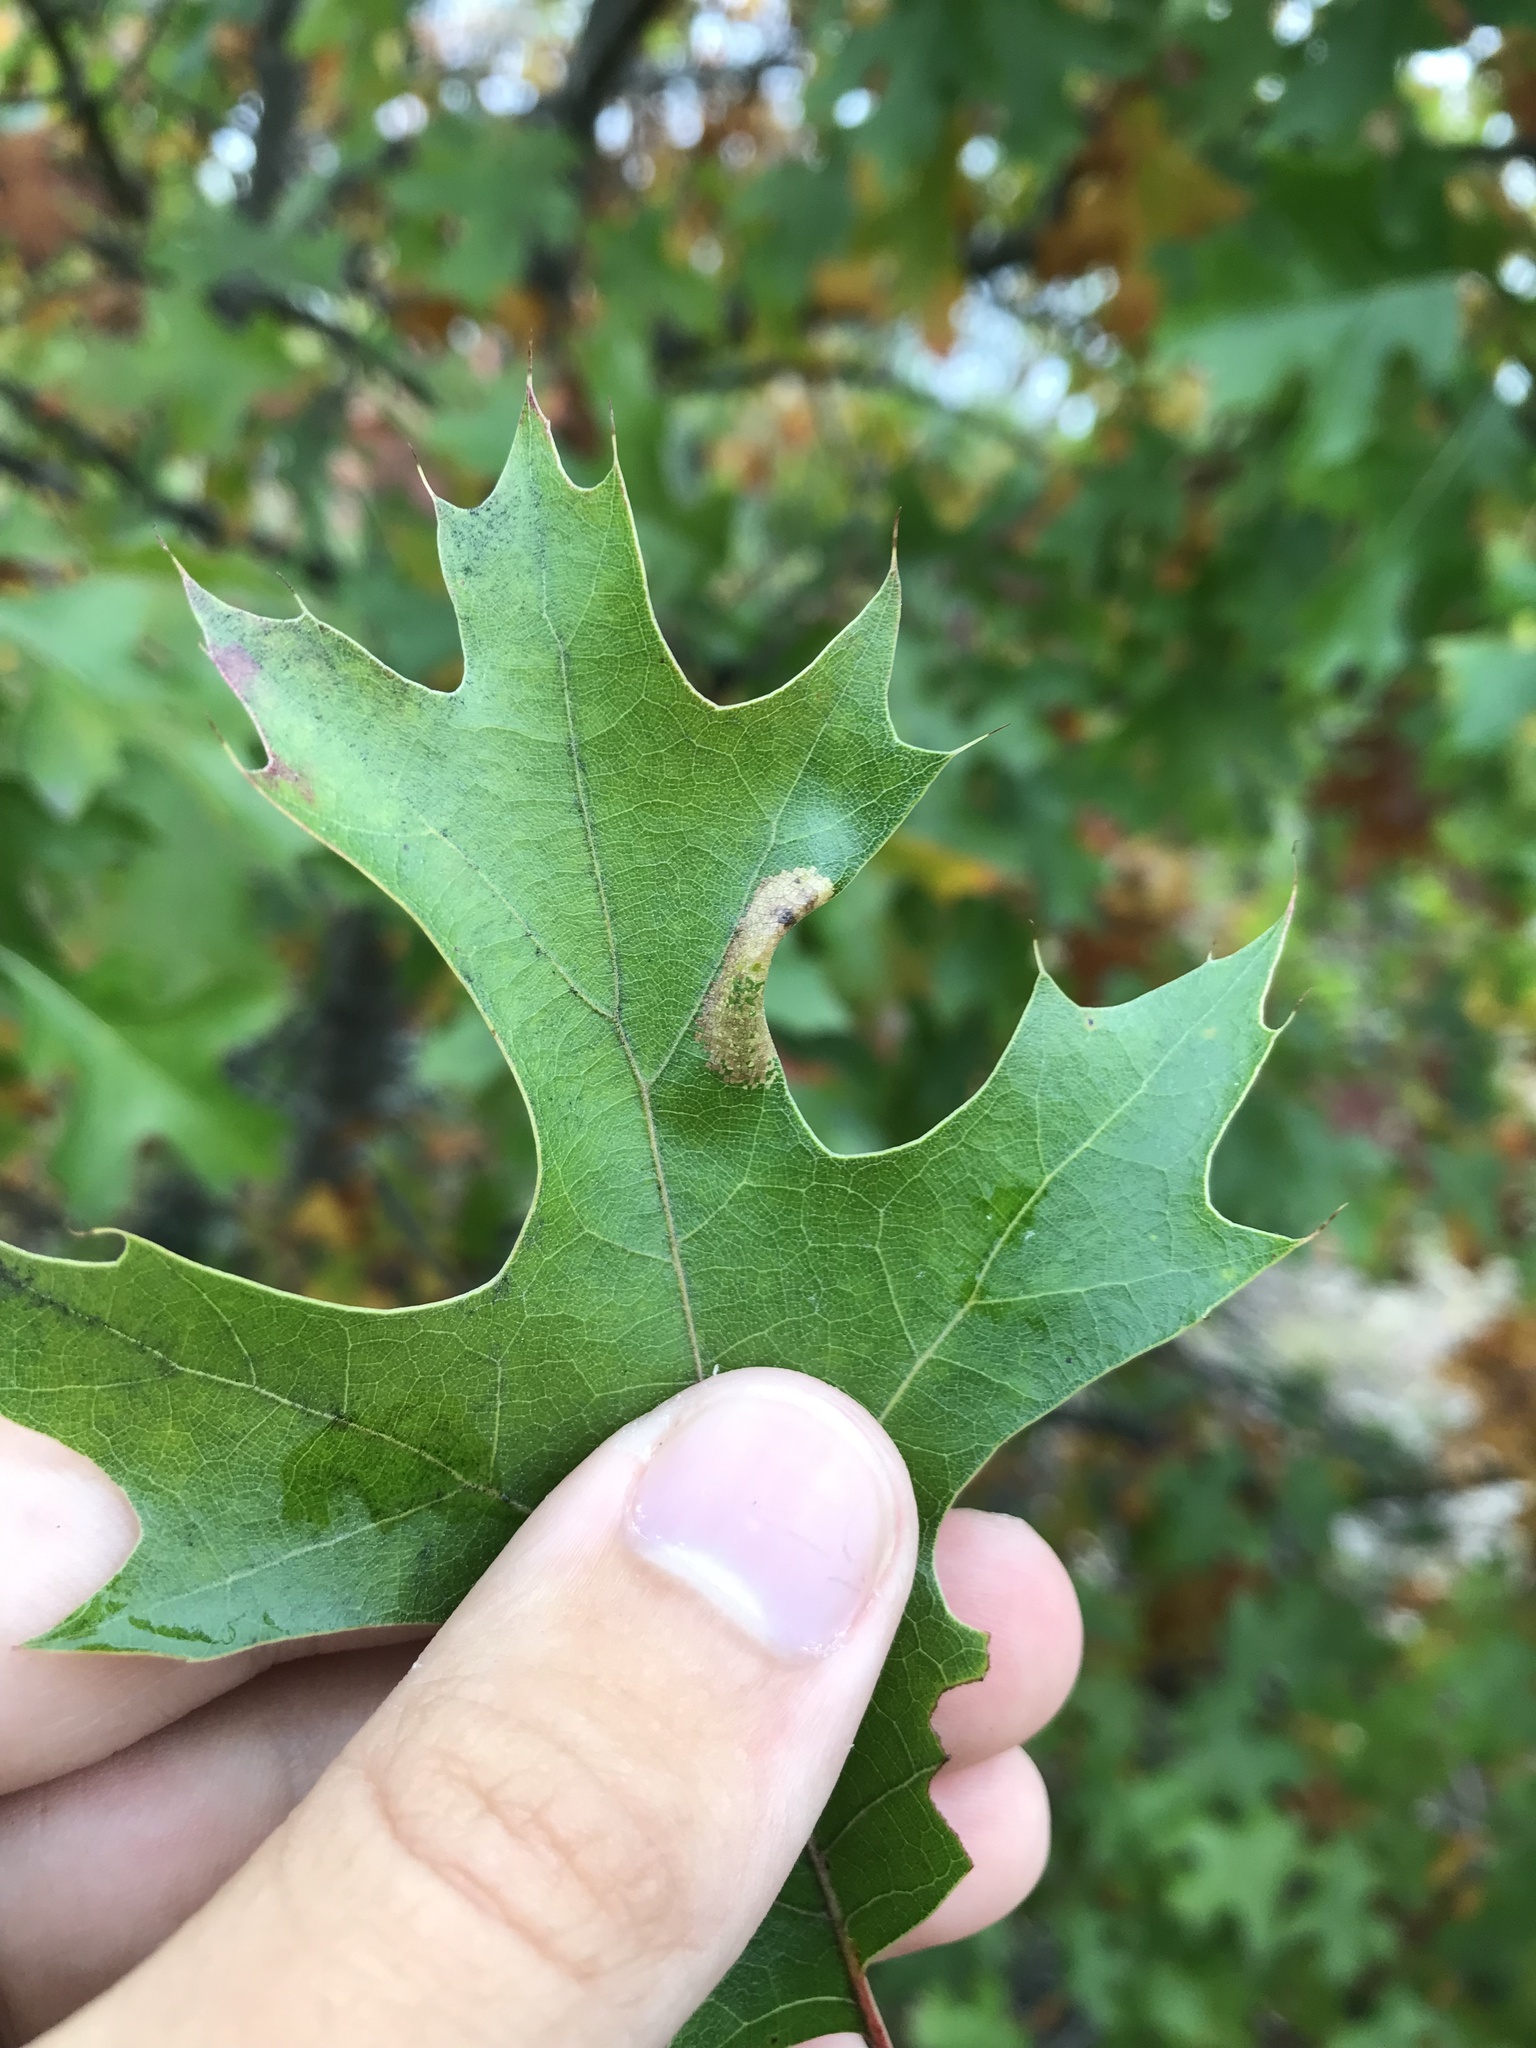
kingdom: Animalia
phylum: Arthropoda
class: Insecta
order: Lepidoptera
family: Gracillariidae
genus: Phyllonorycter
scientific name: Phyllonorycter quercialbella
